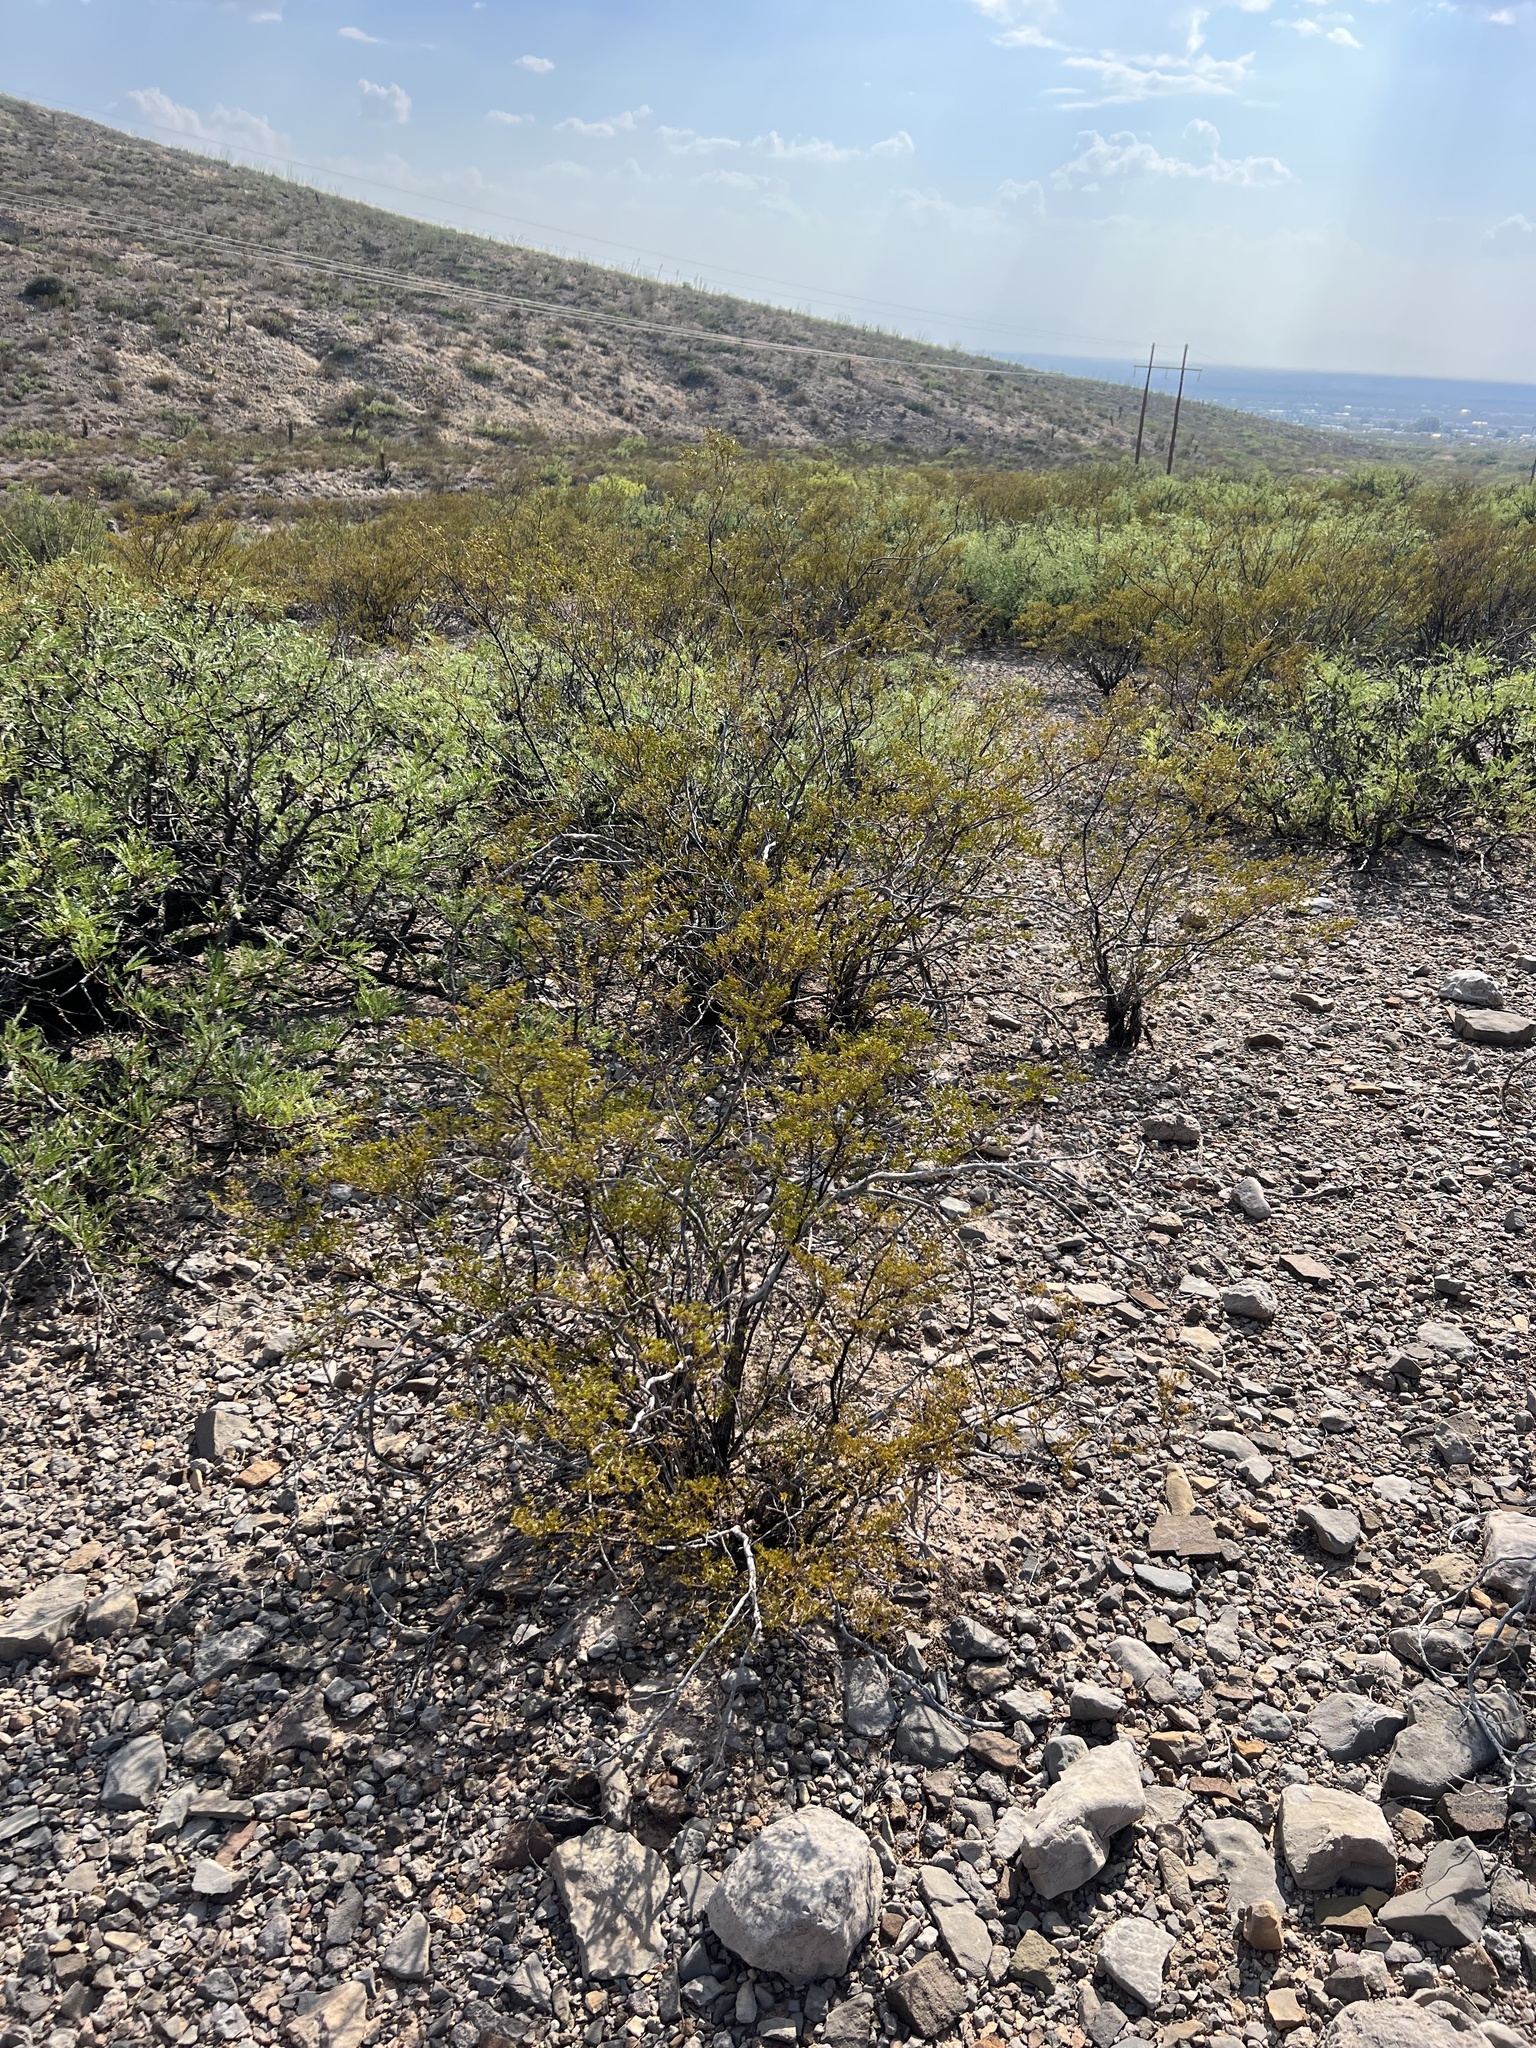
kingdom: Plantae
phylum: Tracheophyta
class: Magnoliopsida
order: Zygophyllales
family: Zygophyllaceae
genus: Larrea
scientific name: Larrea tridentata
